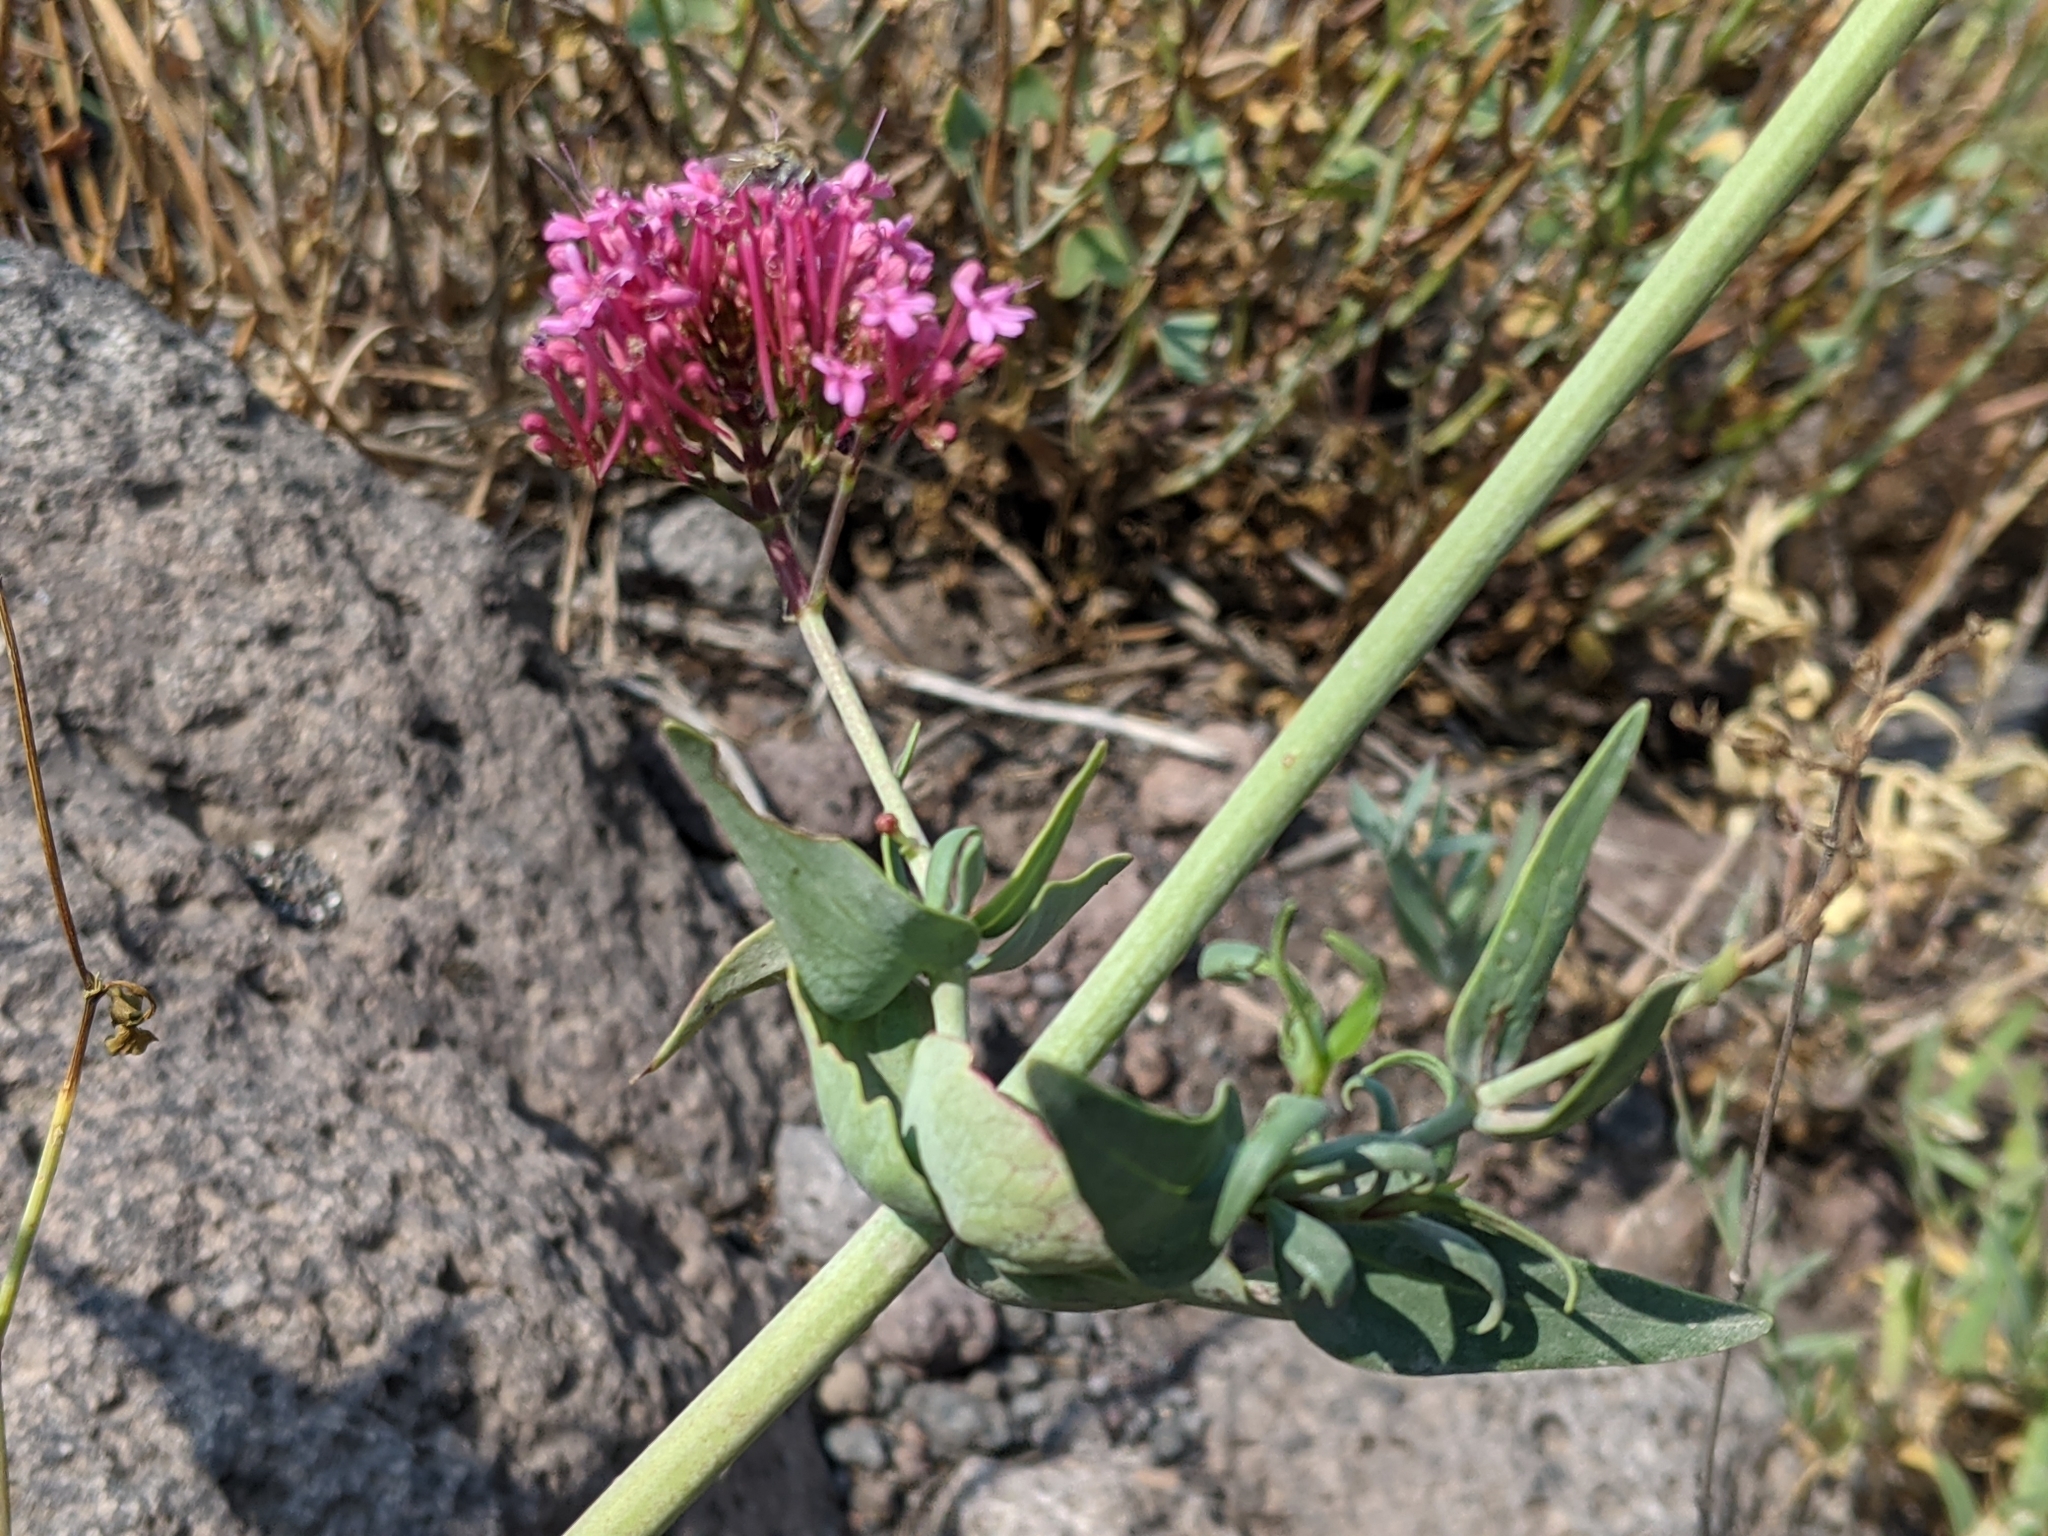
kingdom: Plantae
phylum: Tracheophyta
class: Magnoliopsida
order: Dipsacales
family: Caprifoliaceae
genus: Centranthus
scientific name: Centranthus ruber
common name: Red valerian
